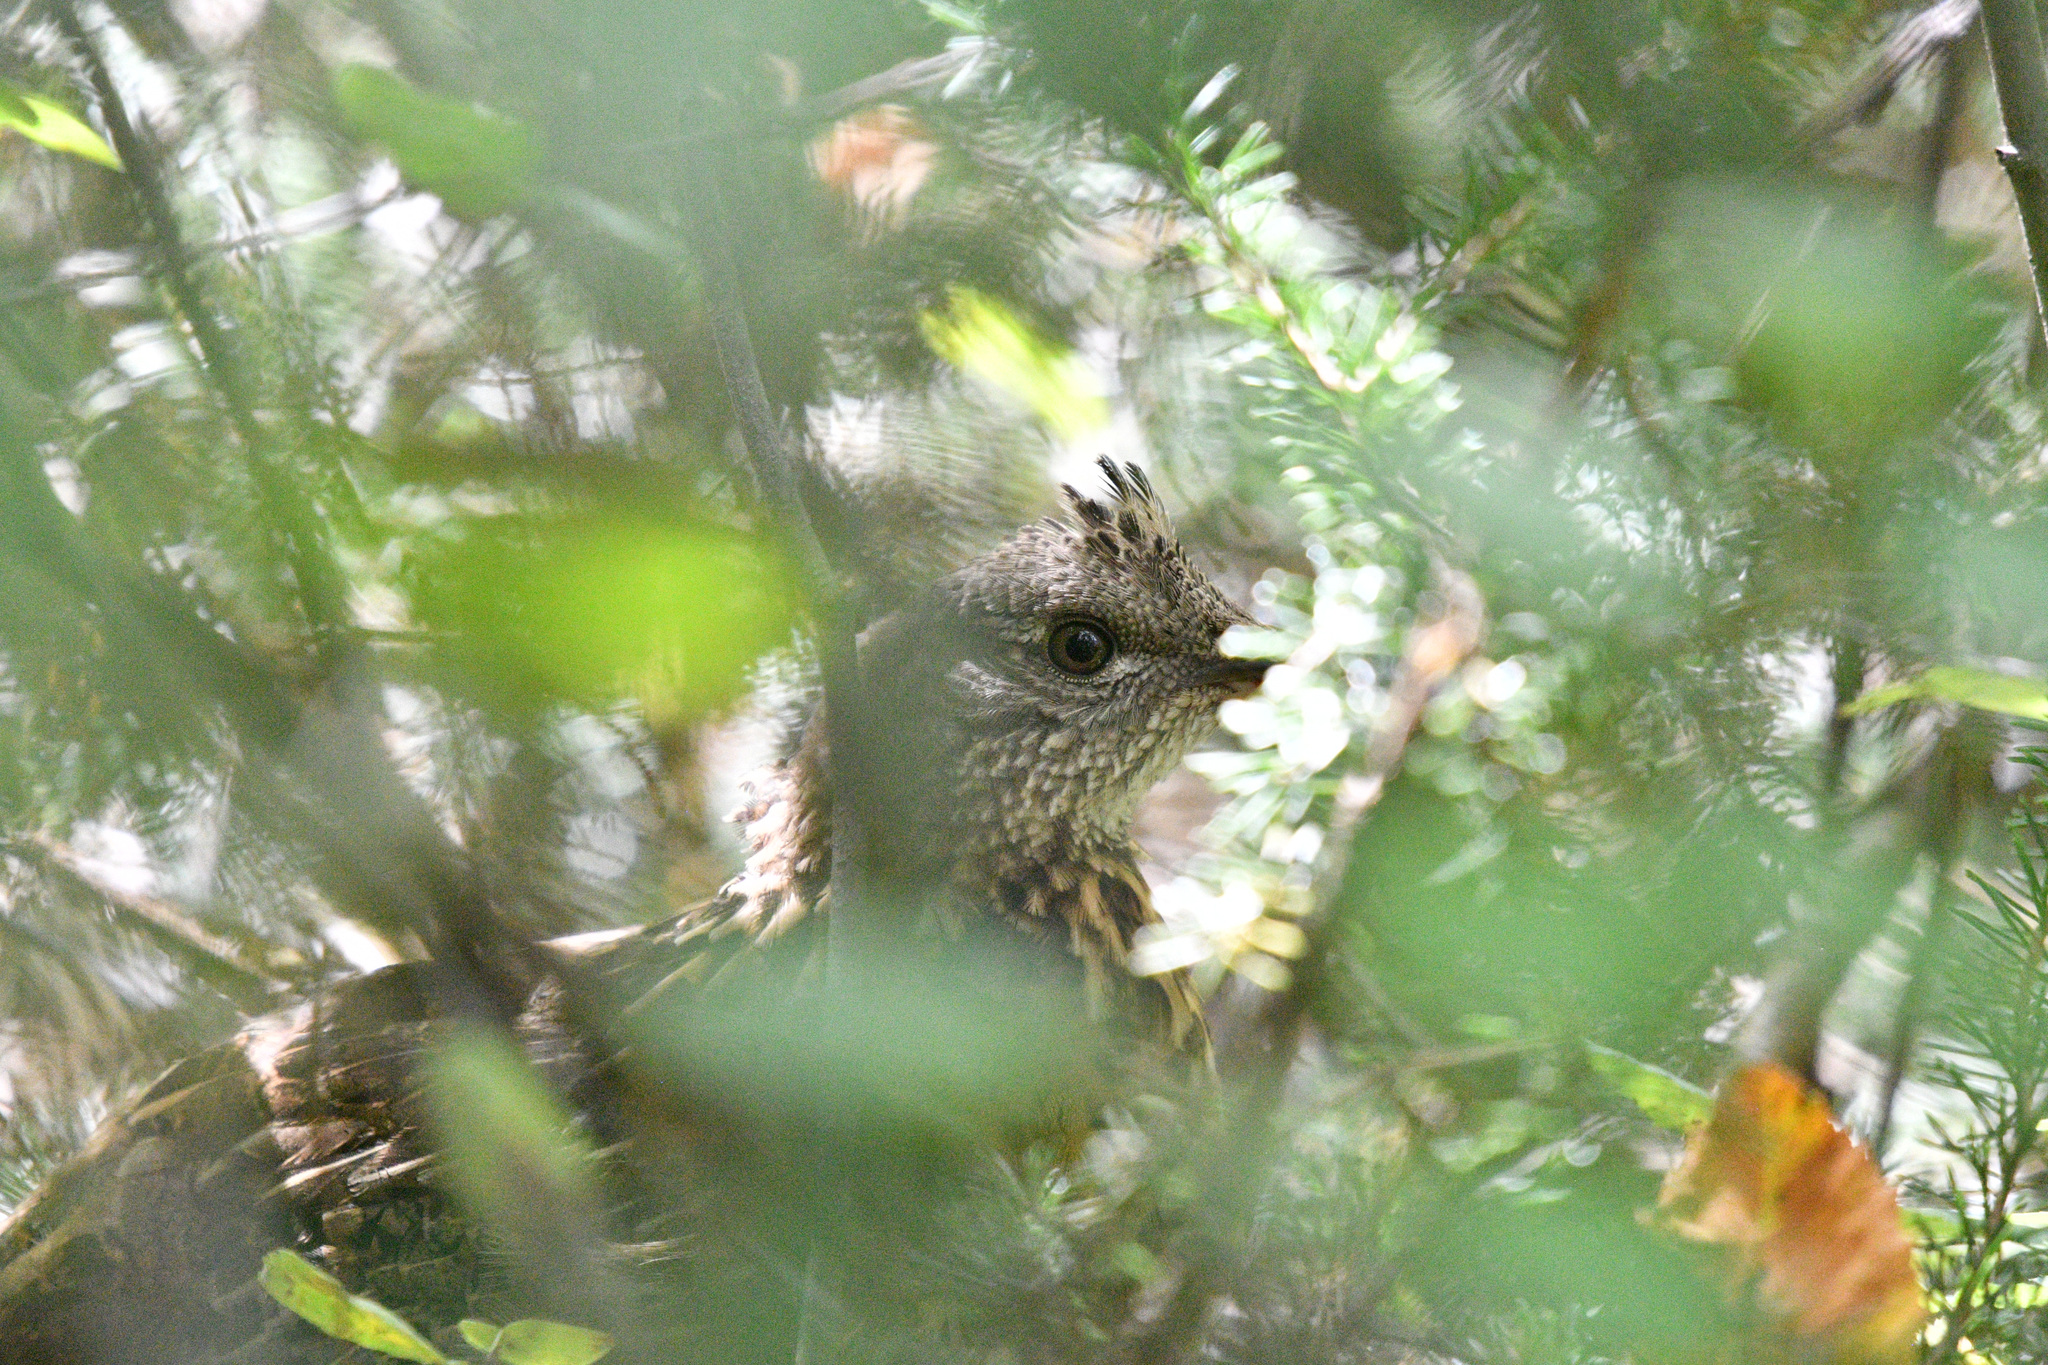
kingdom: Animalia
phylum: Chordata
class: Aves
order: Galliformes
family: Phasianidae
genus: Bonasa
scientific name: Bonasa umbellus
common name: Ruffed grouse
